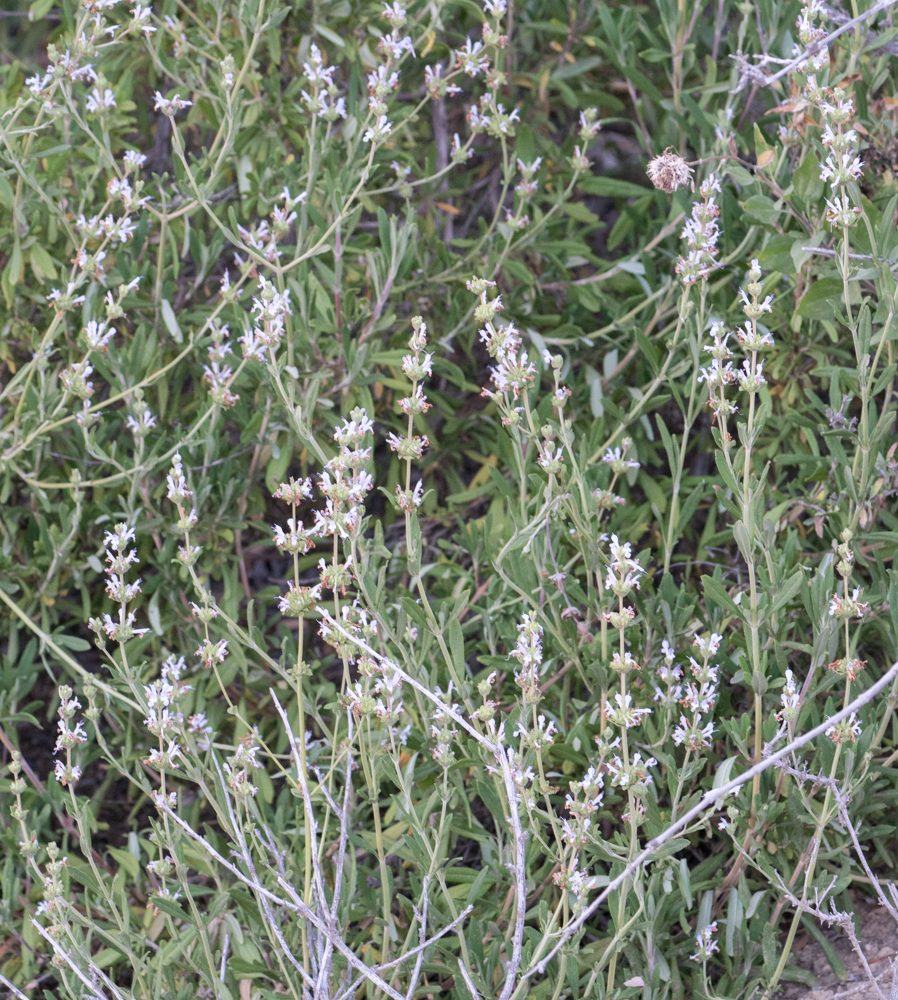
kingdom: Plantae
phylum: Tracheophyta
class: Magnoliopsida
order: Lamiales
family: Lamiaceae
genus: Salvia
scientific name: Salvia mellifera
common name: Black sage
